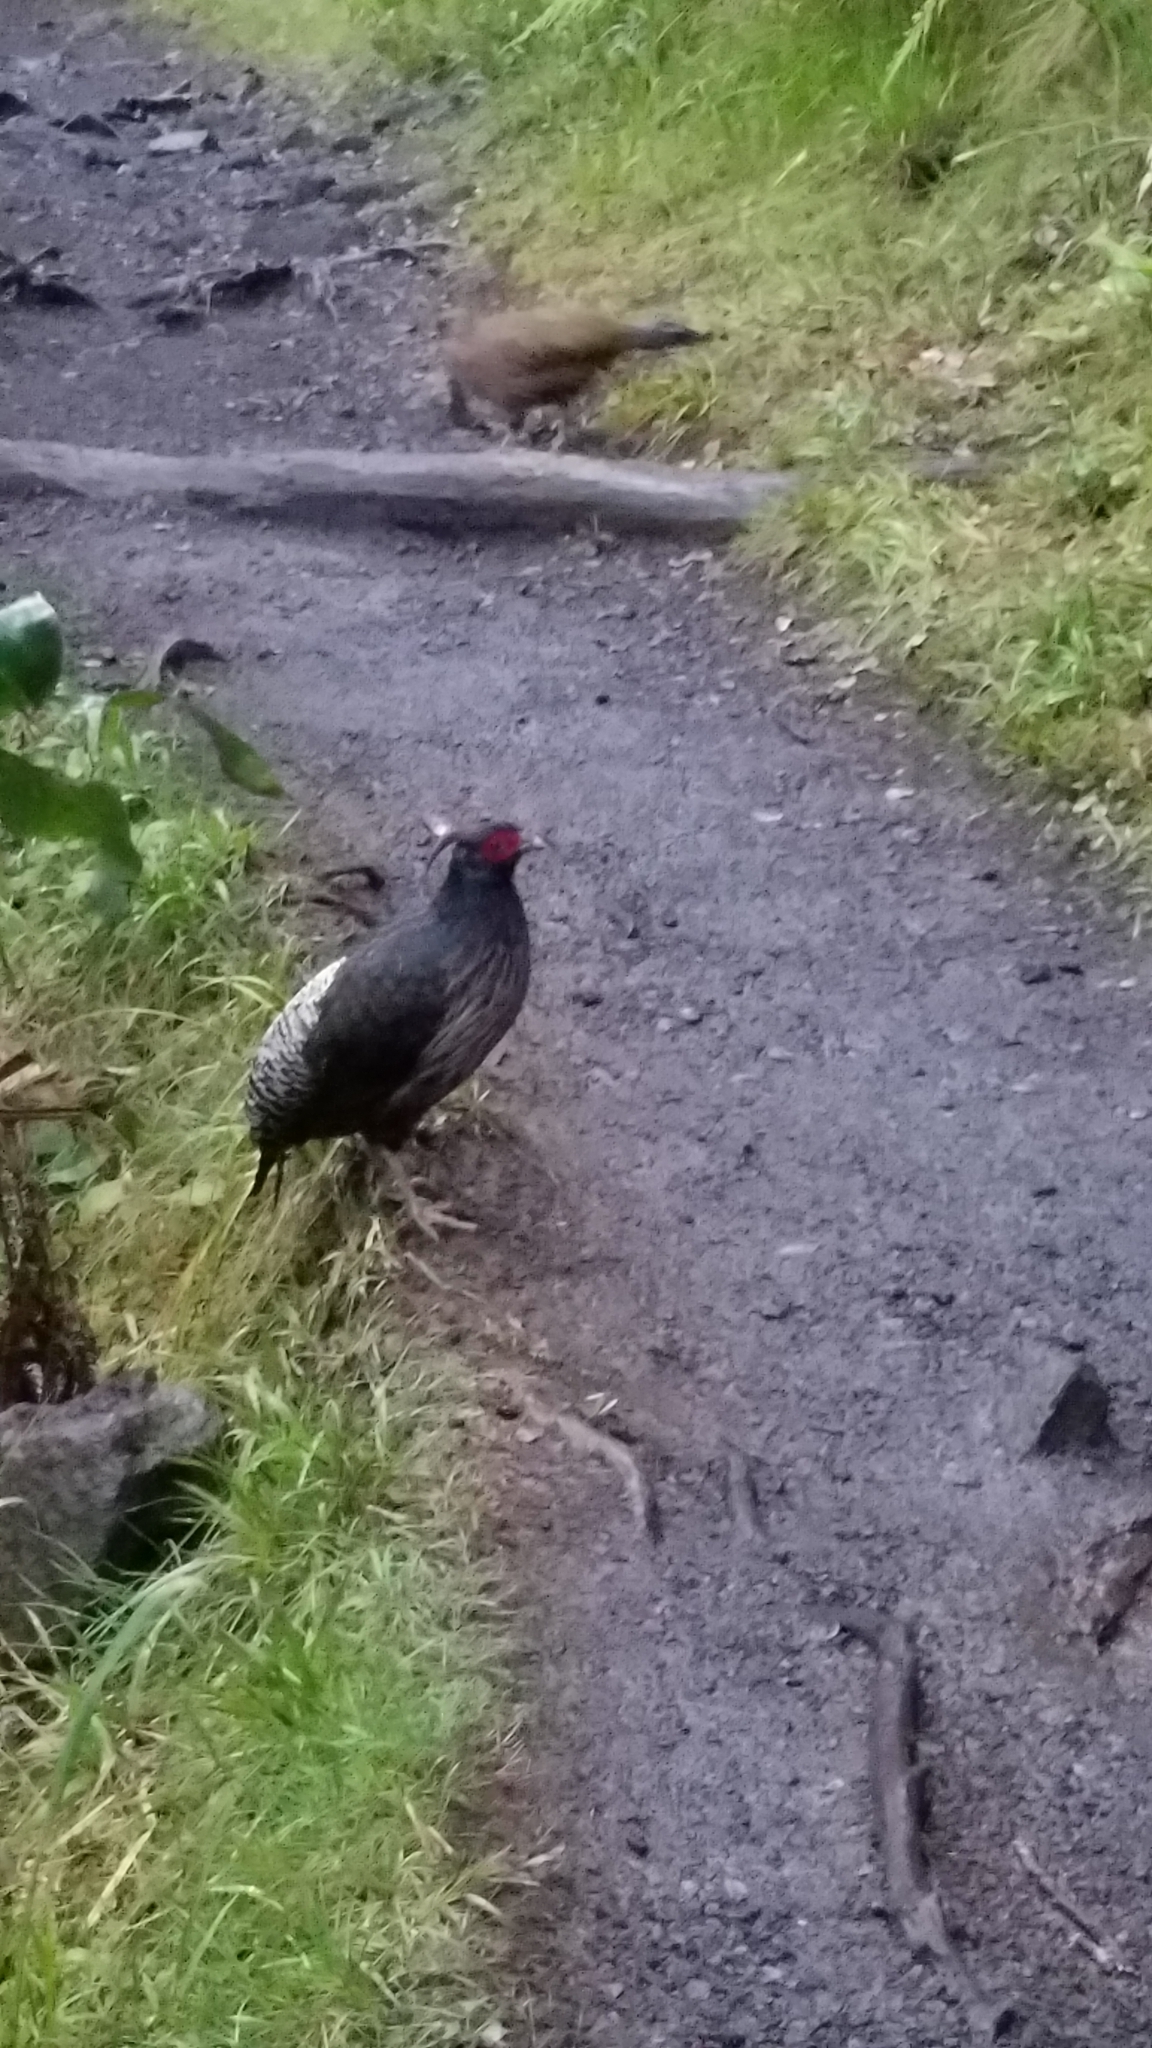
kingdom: Animalia
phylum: Chordata
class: Aves
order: Galliformes
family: Phasianidae
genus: Lophura
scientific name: Lophura leucomelanos
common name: Kalij pheasant
